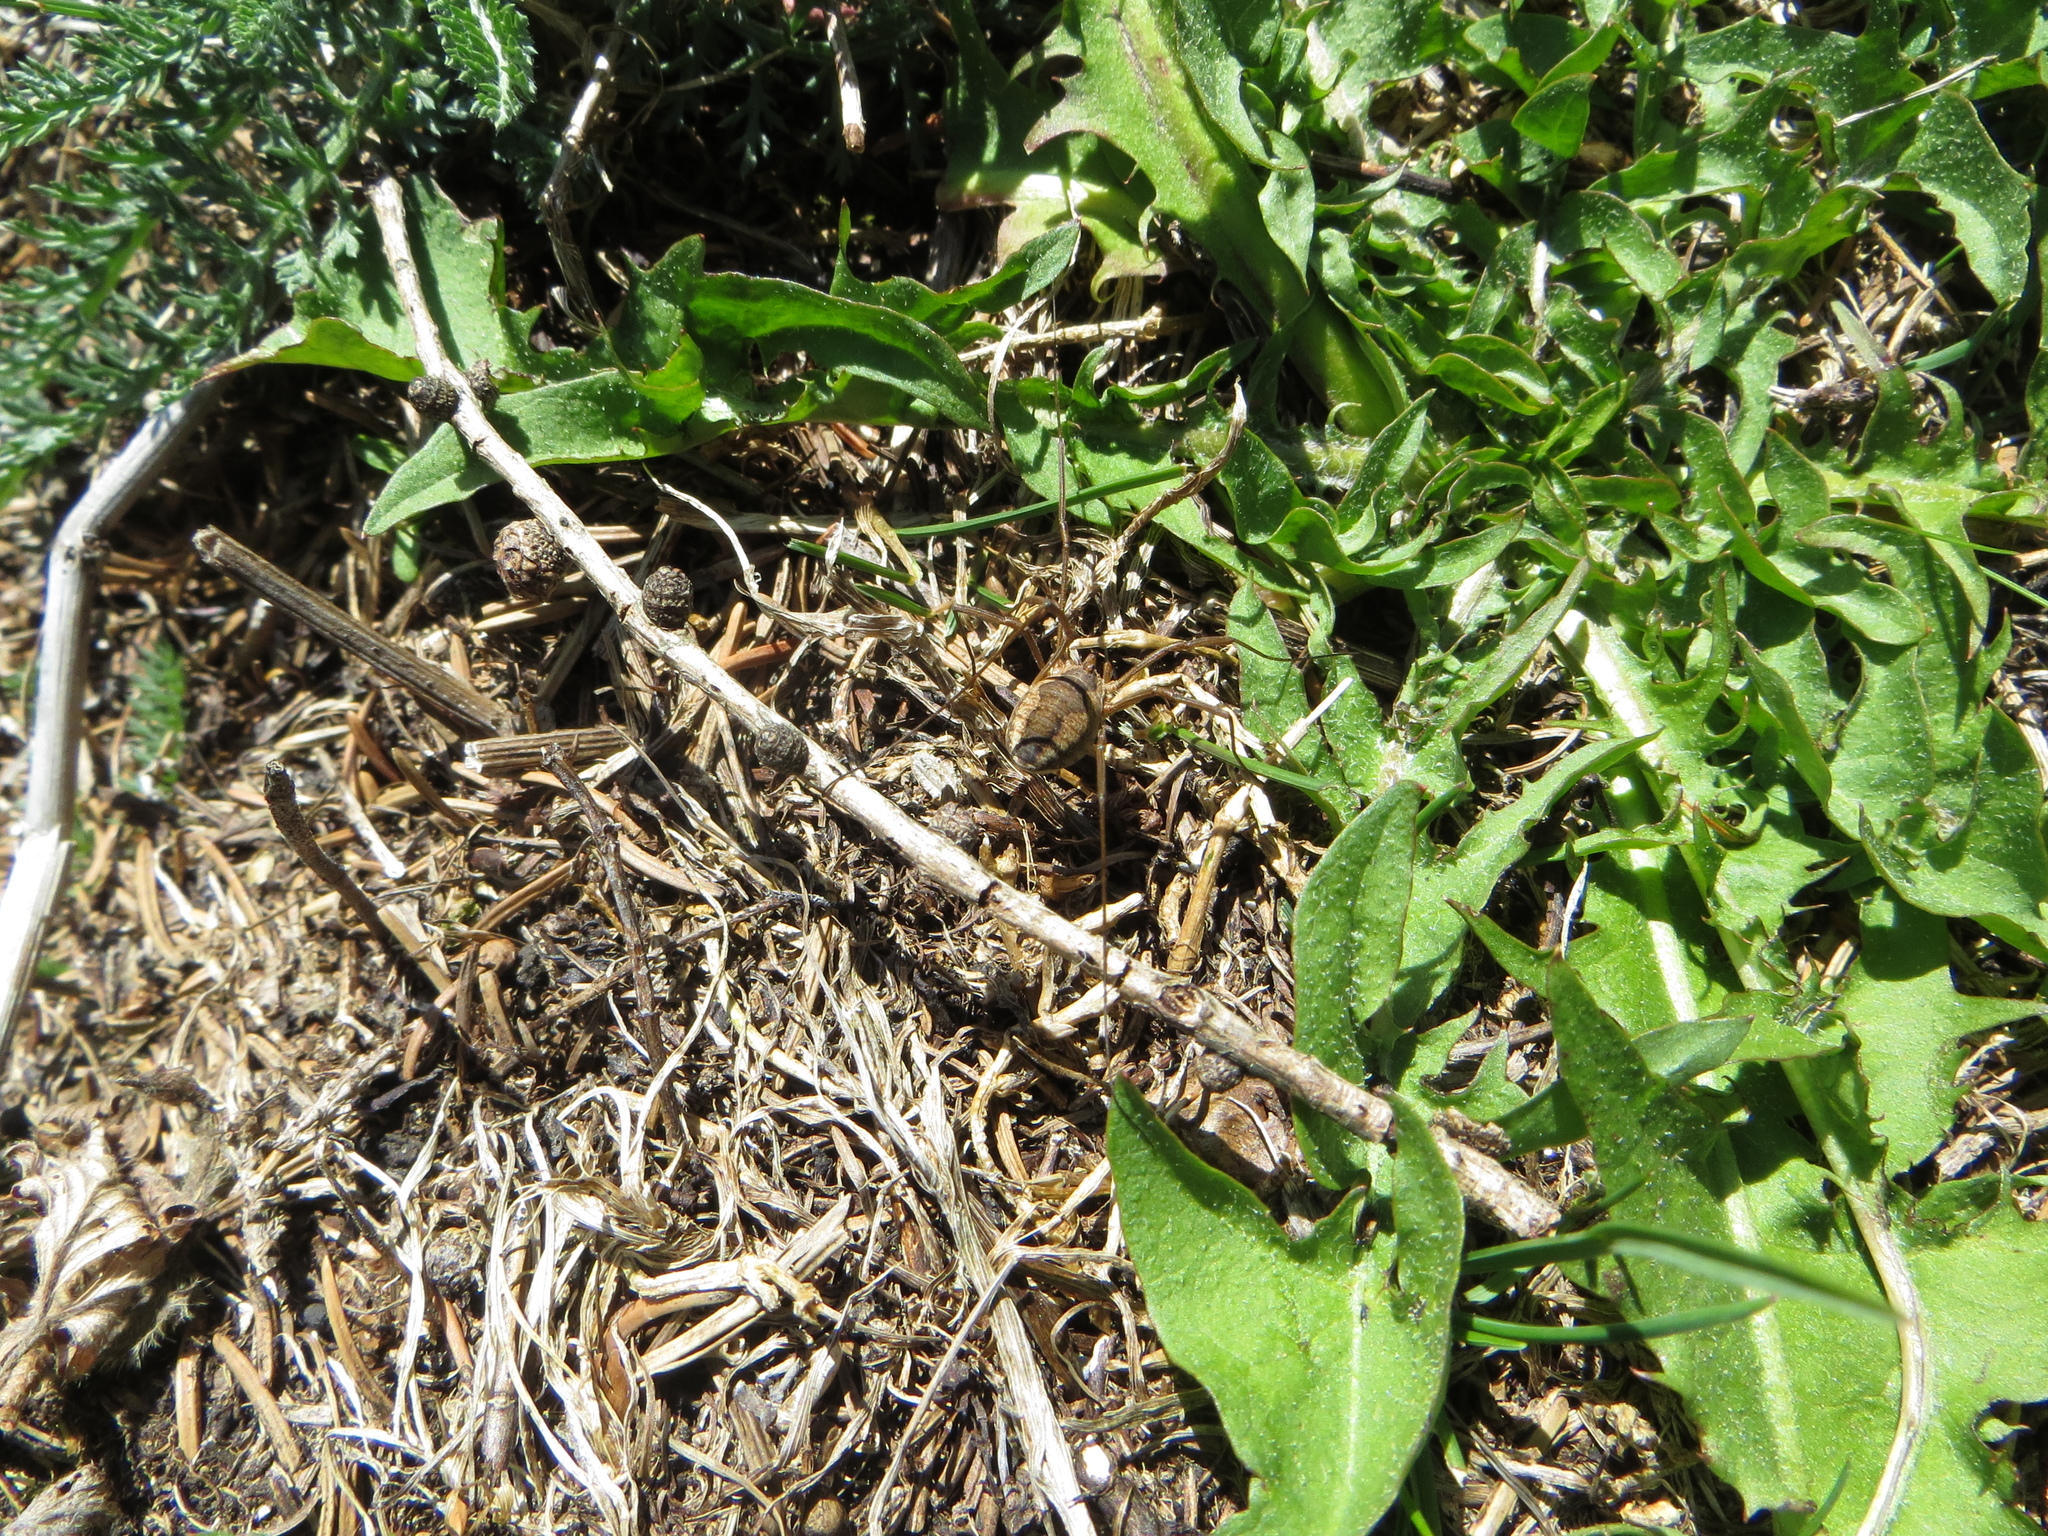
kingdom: Animalia
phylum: Arthropoda
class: Arachnida
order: Opiliones
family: Phalangiidae
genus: Phalangium
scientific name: Phalangium opilio
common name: Daddy longleg
